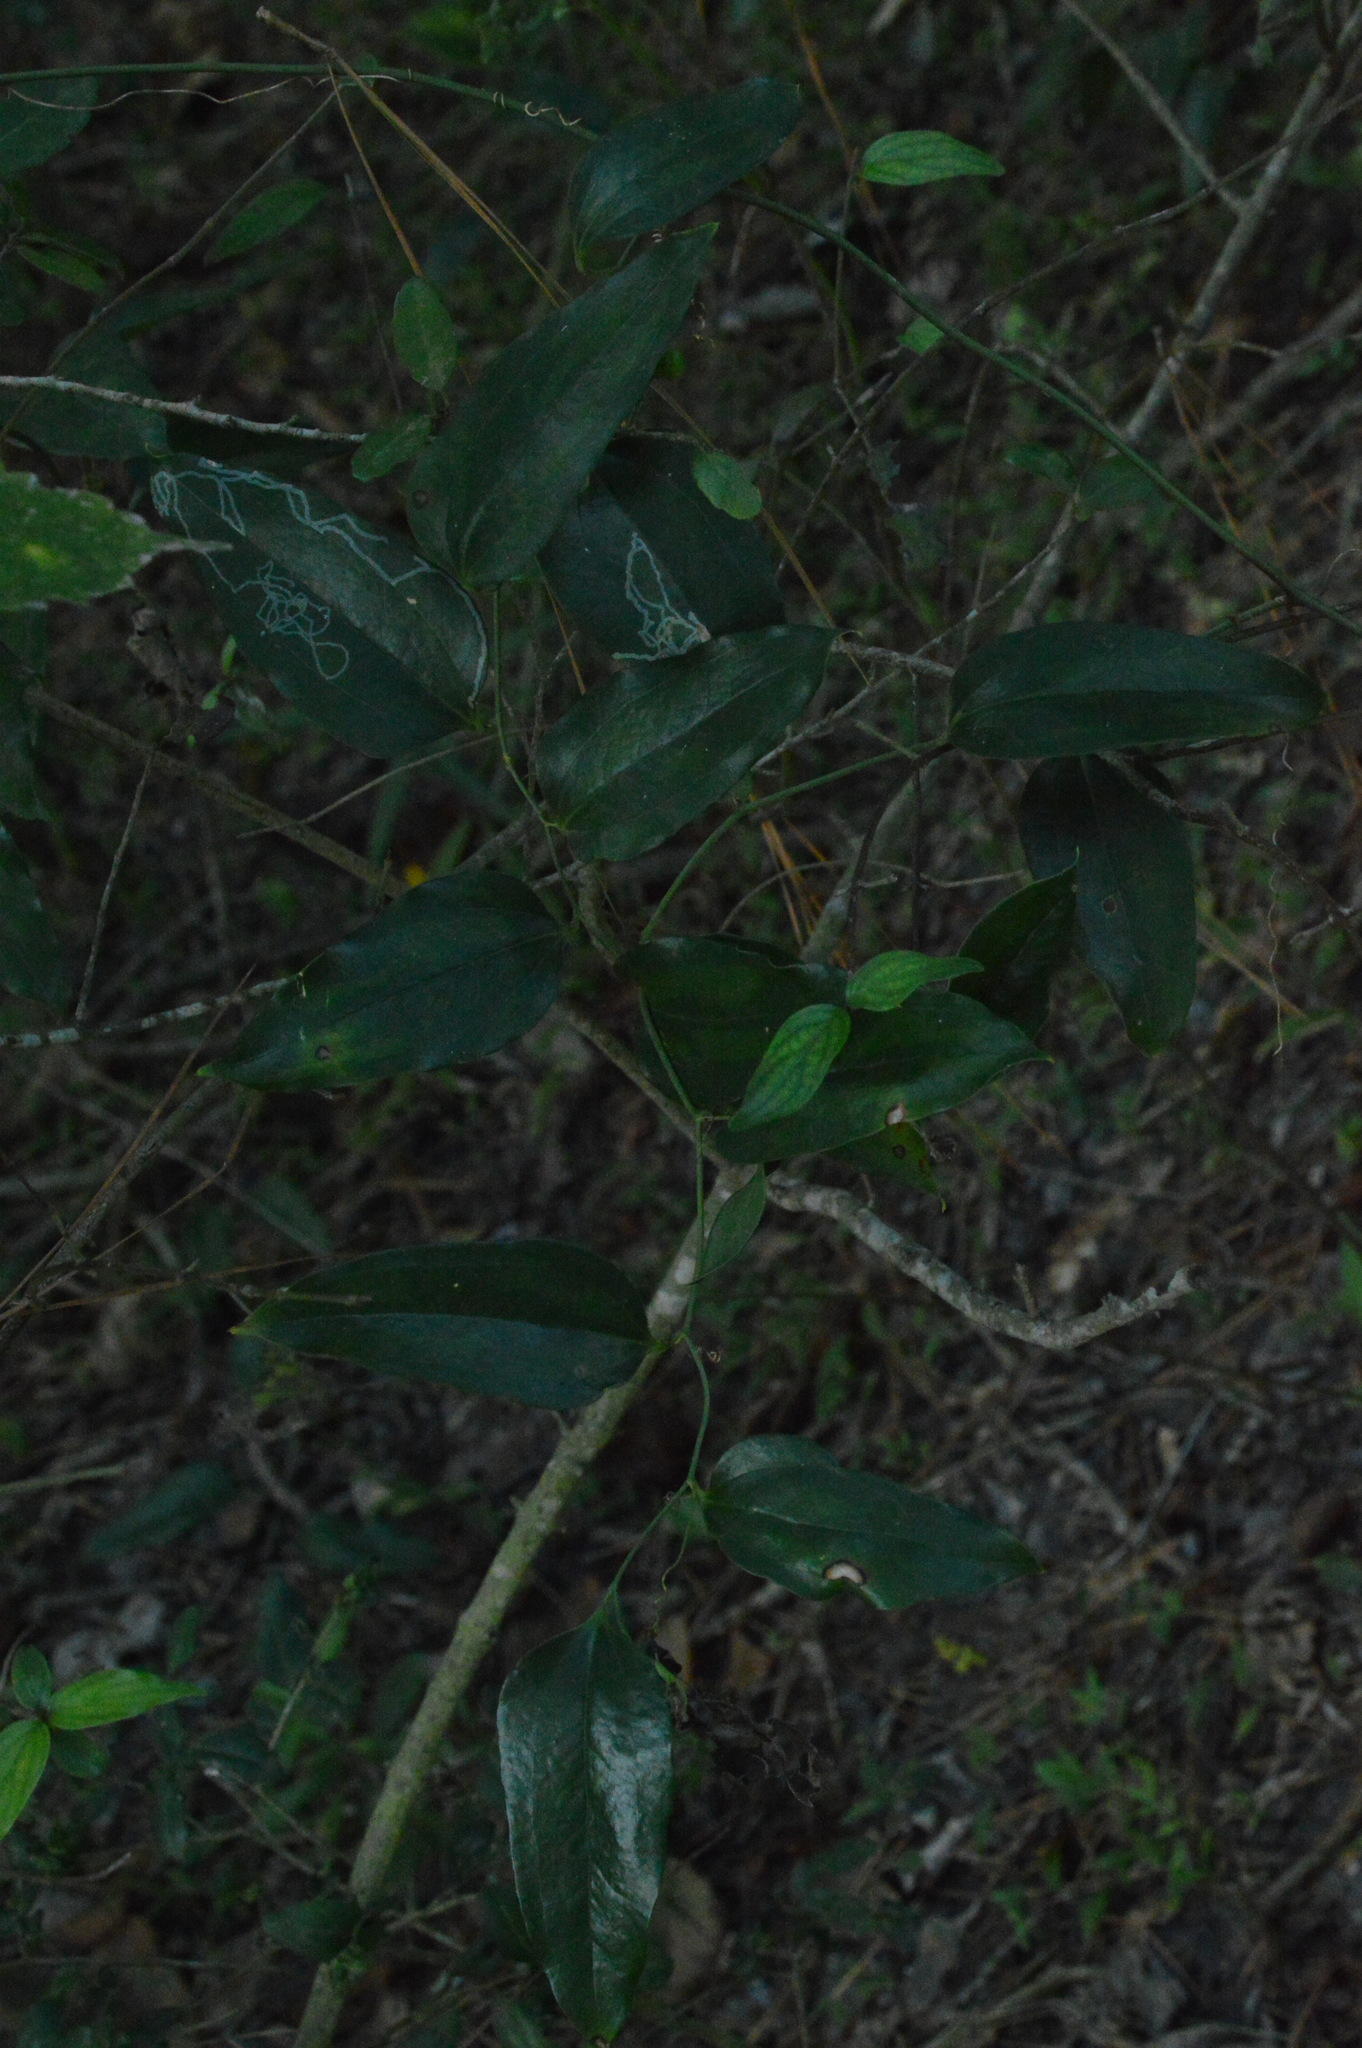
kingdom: Plantae
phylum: Tracheophyta
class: Liliopsida
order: Liliales
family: Smilacaceae
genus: Smilax
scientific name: Smilax maritima
